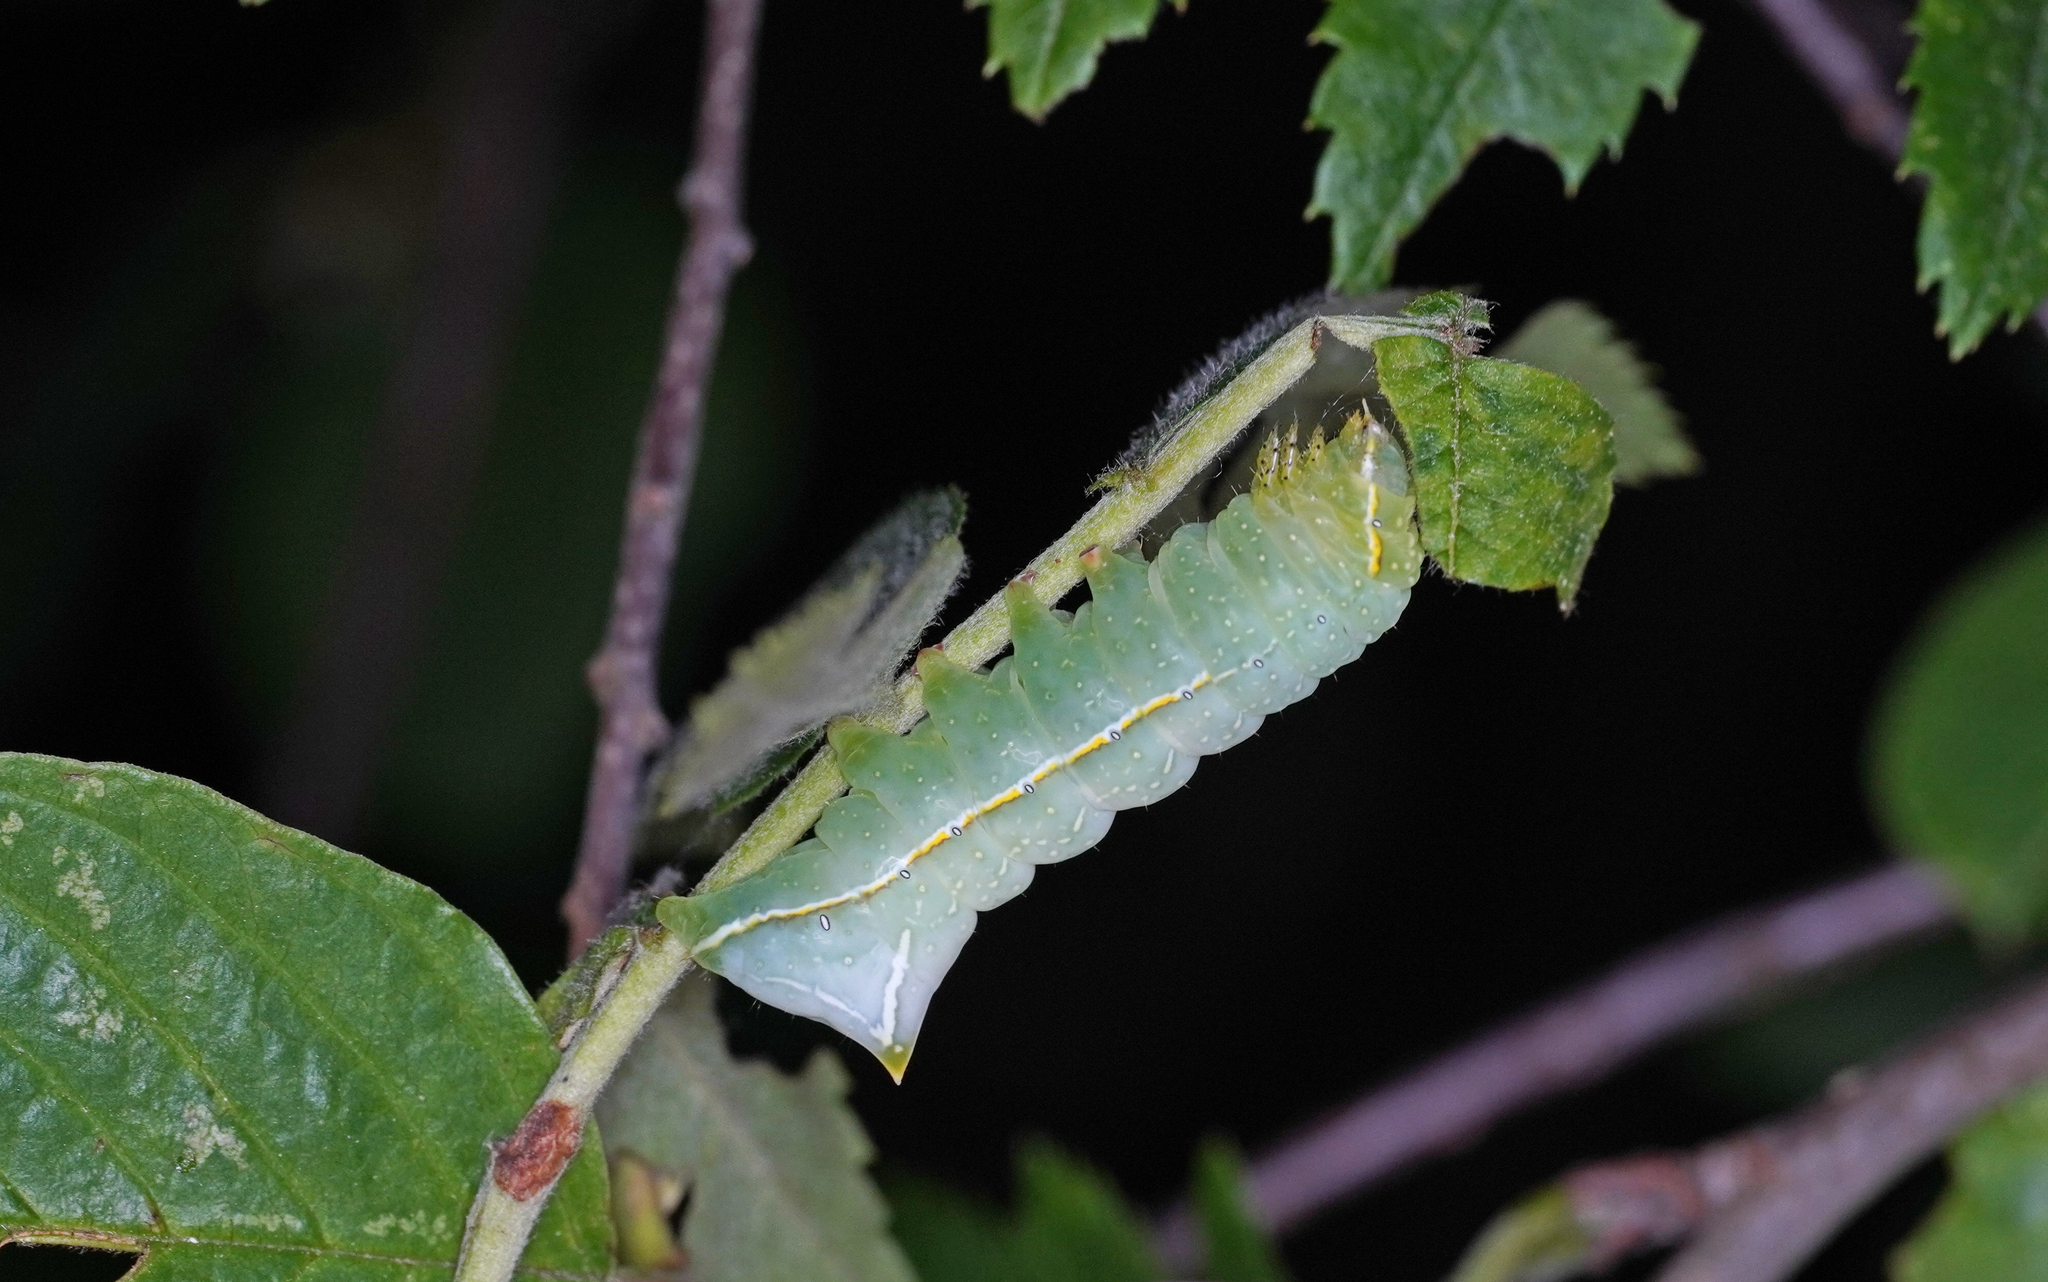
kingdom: Animalia
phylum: Arthropoda
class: Insecta
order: Lepidoptera
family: Noctuidae
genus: Amphipyra
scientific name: Amphipyra pyramidea
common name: Copper underwing
